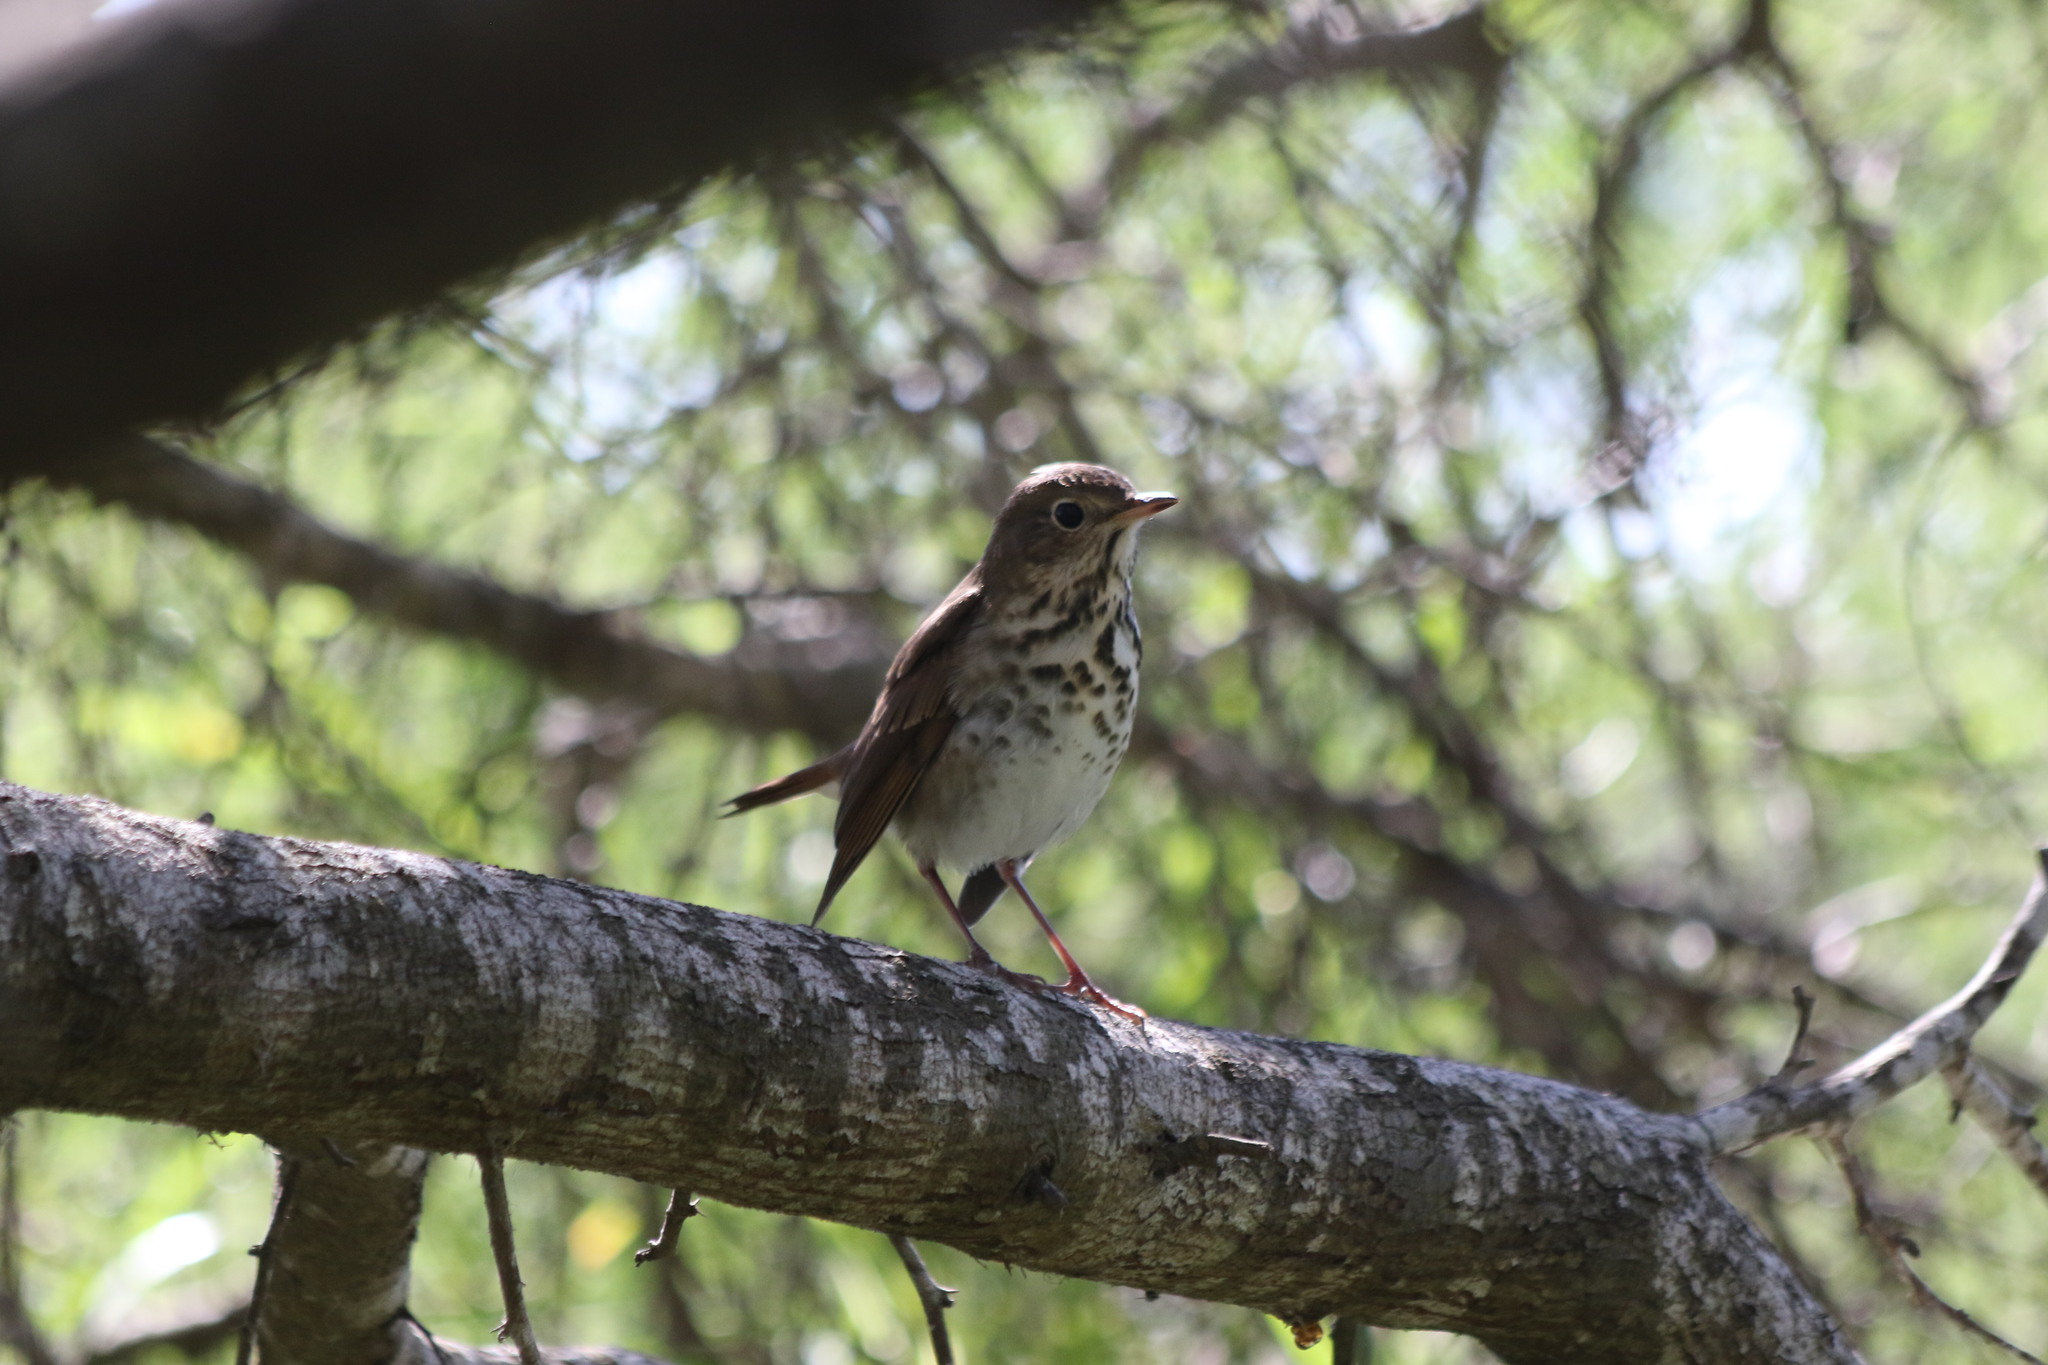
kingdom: Animalia
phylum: Chordata
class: Aves
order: Passeriformes
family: Turdidae
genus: Catharus
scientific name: Catharus guttatus
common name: Hermit thrush
